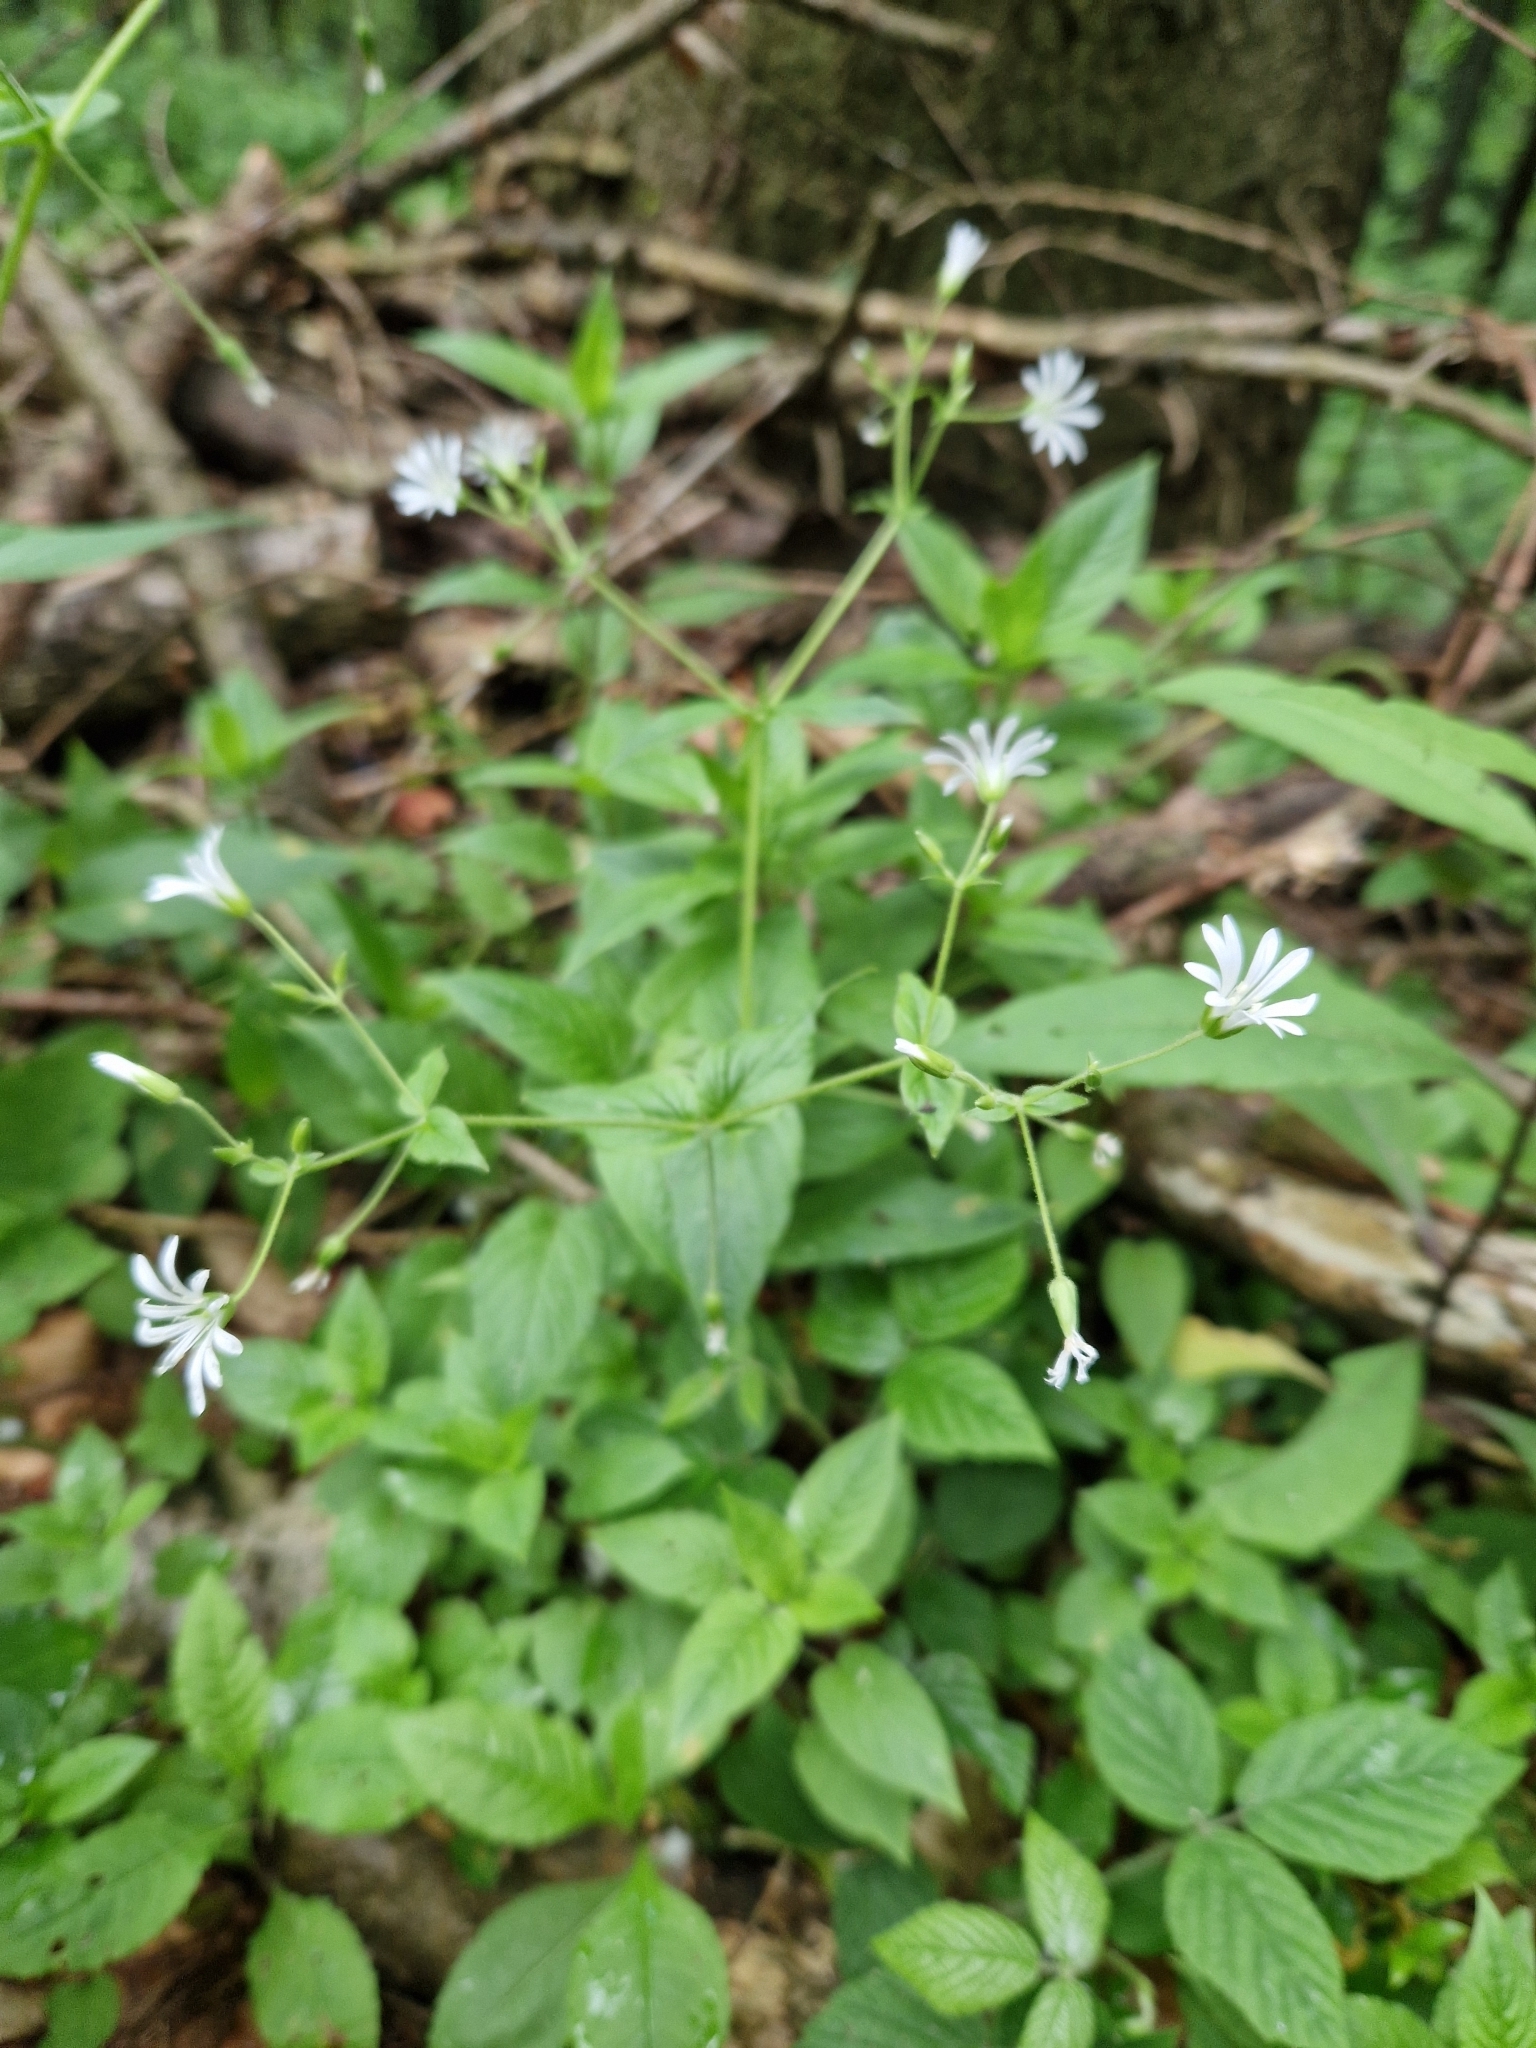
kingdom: Plantae
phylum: Tracheophyta
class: Magnoliopsida
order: Caryophyllales
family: Caryophyllaceae
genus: Stellaria
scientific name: Stellaria nemorum
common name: Wood stitchwort
